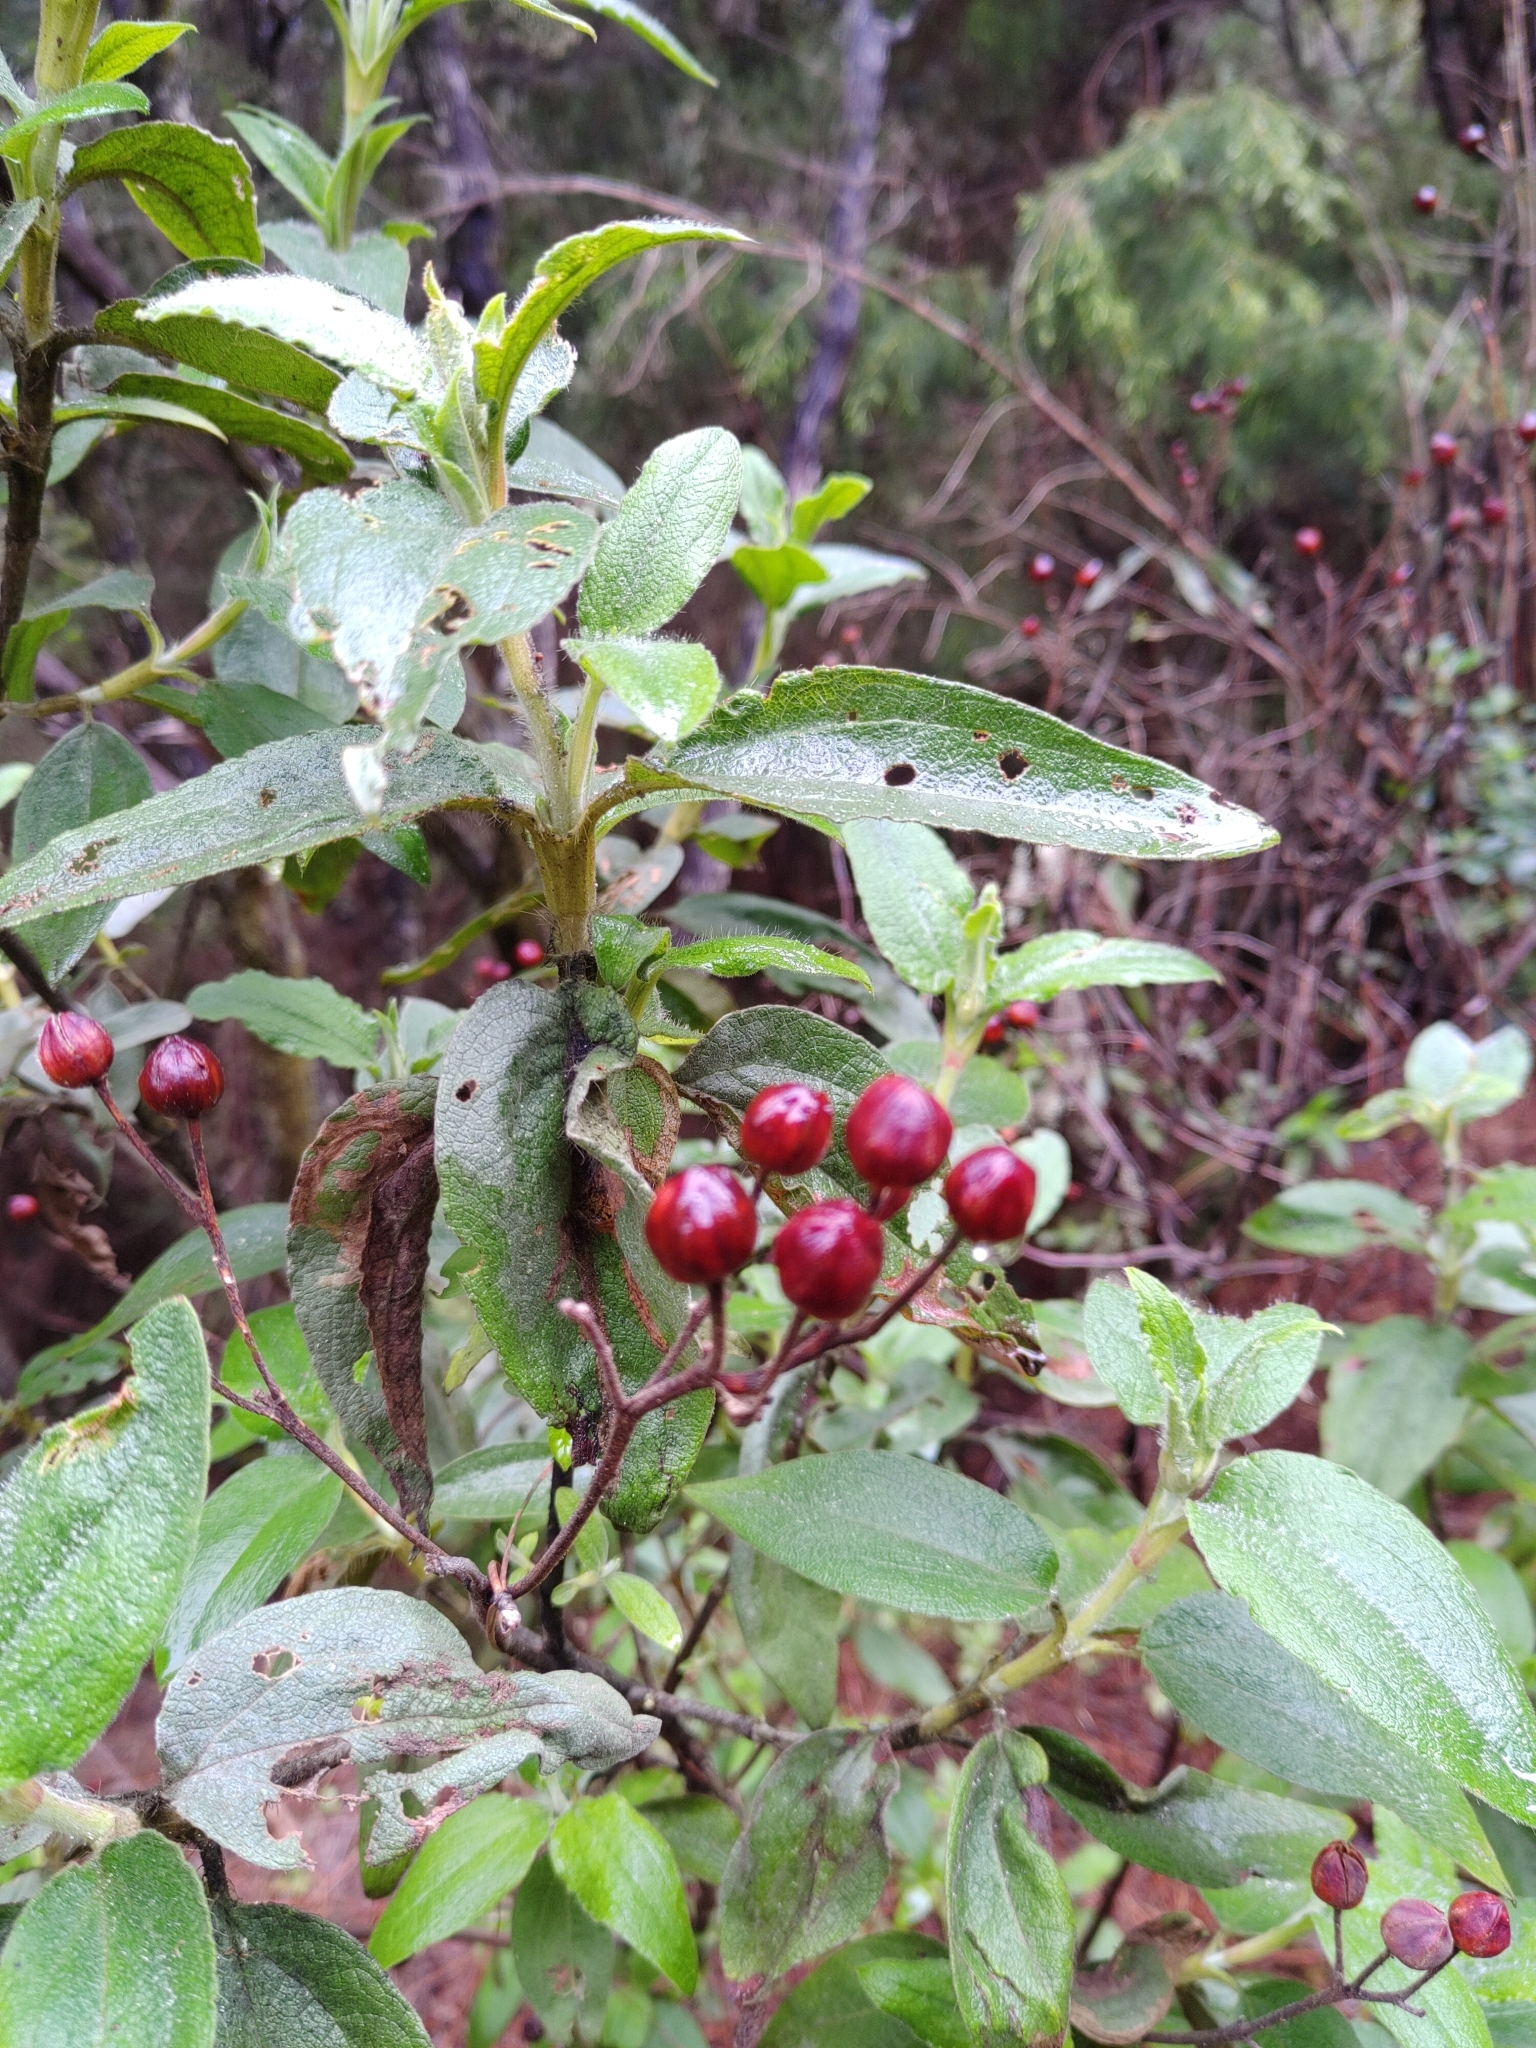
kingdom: Plantae
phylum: Tracheophyta
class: Magnoliopsida
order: Malvales
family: Cistaceae
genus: Cistus
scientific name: Cistus symphytifolius
